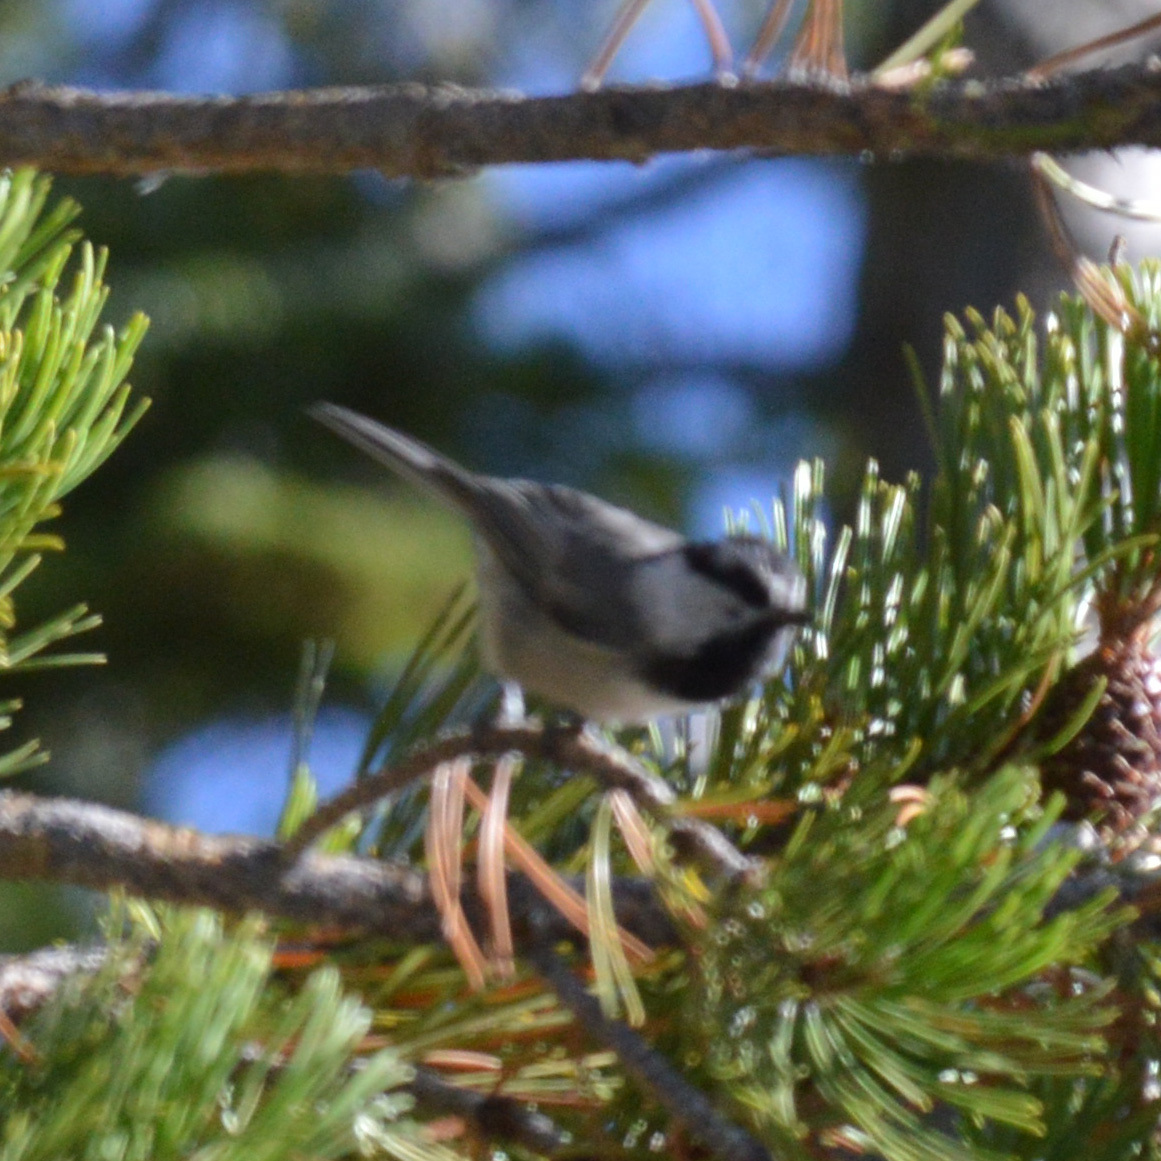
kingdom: Animalia
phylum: Chordata
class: Aves
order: Passeriformes
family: Paridae
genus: Poecile
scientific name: Poecile gambeli
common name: Mountain chickadee
